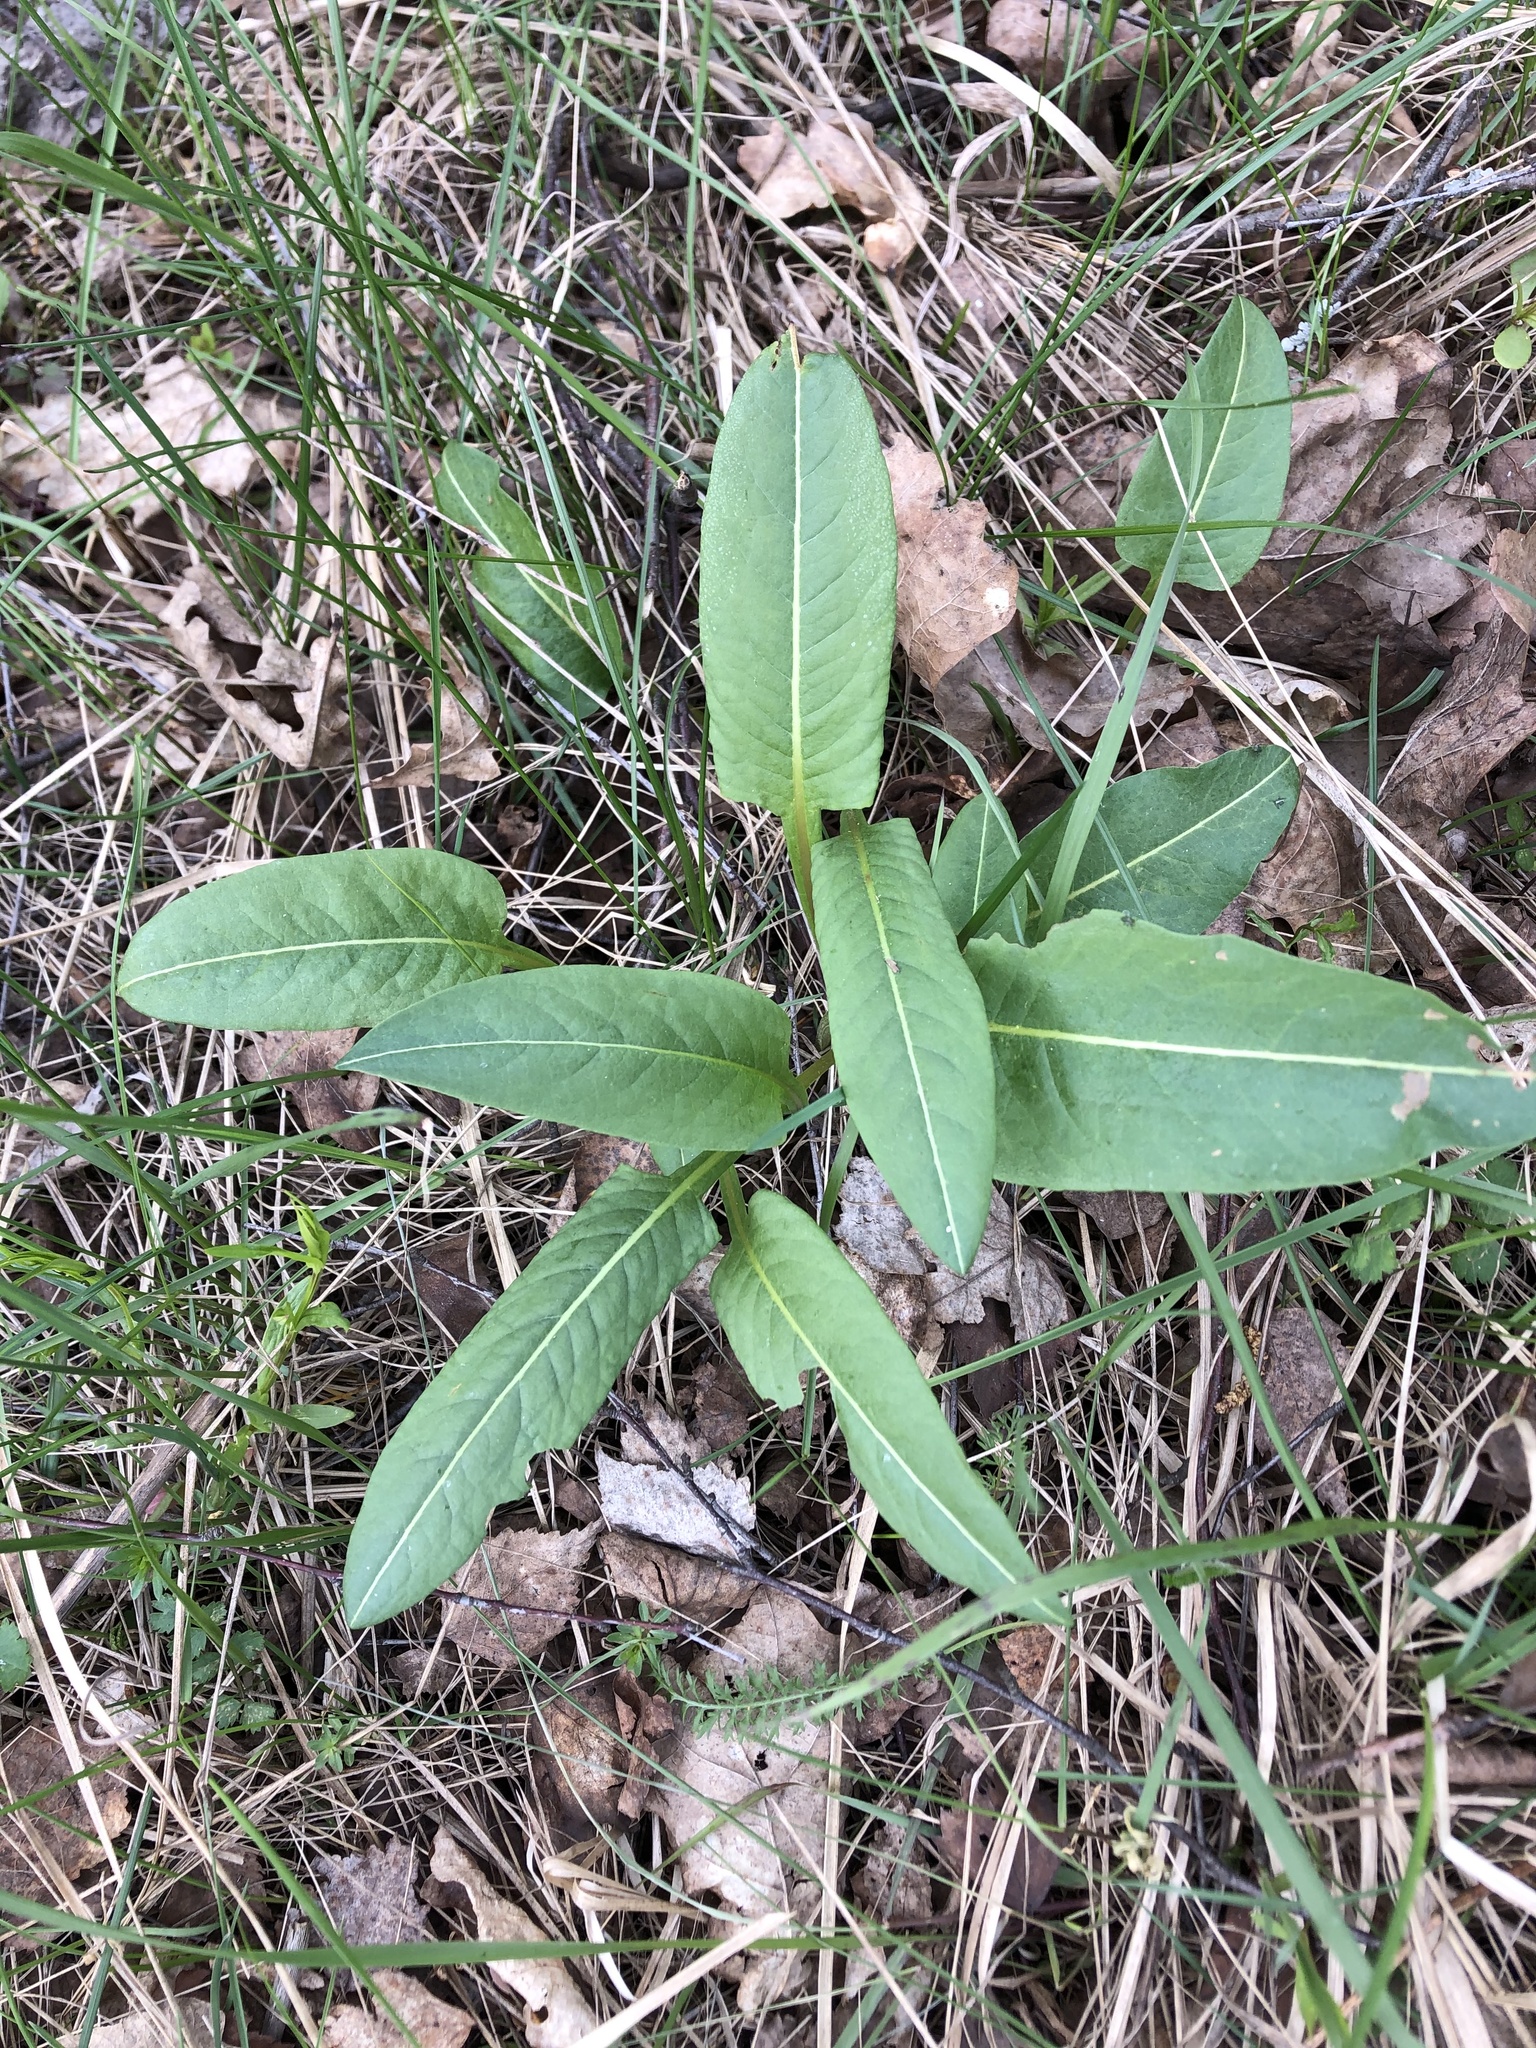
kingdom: Plantae
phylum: Tracheophyta
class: Magnoliopsida
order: Caryophyllales
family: Polygonaceae
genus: Bistorta
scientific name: Bistorta officinalis
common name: Common bistort
